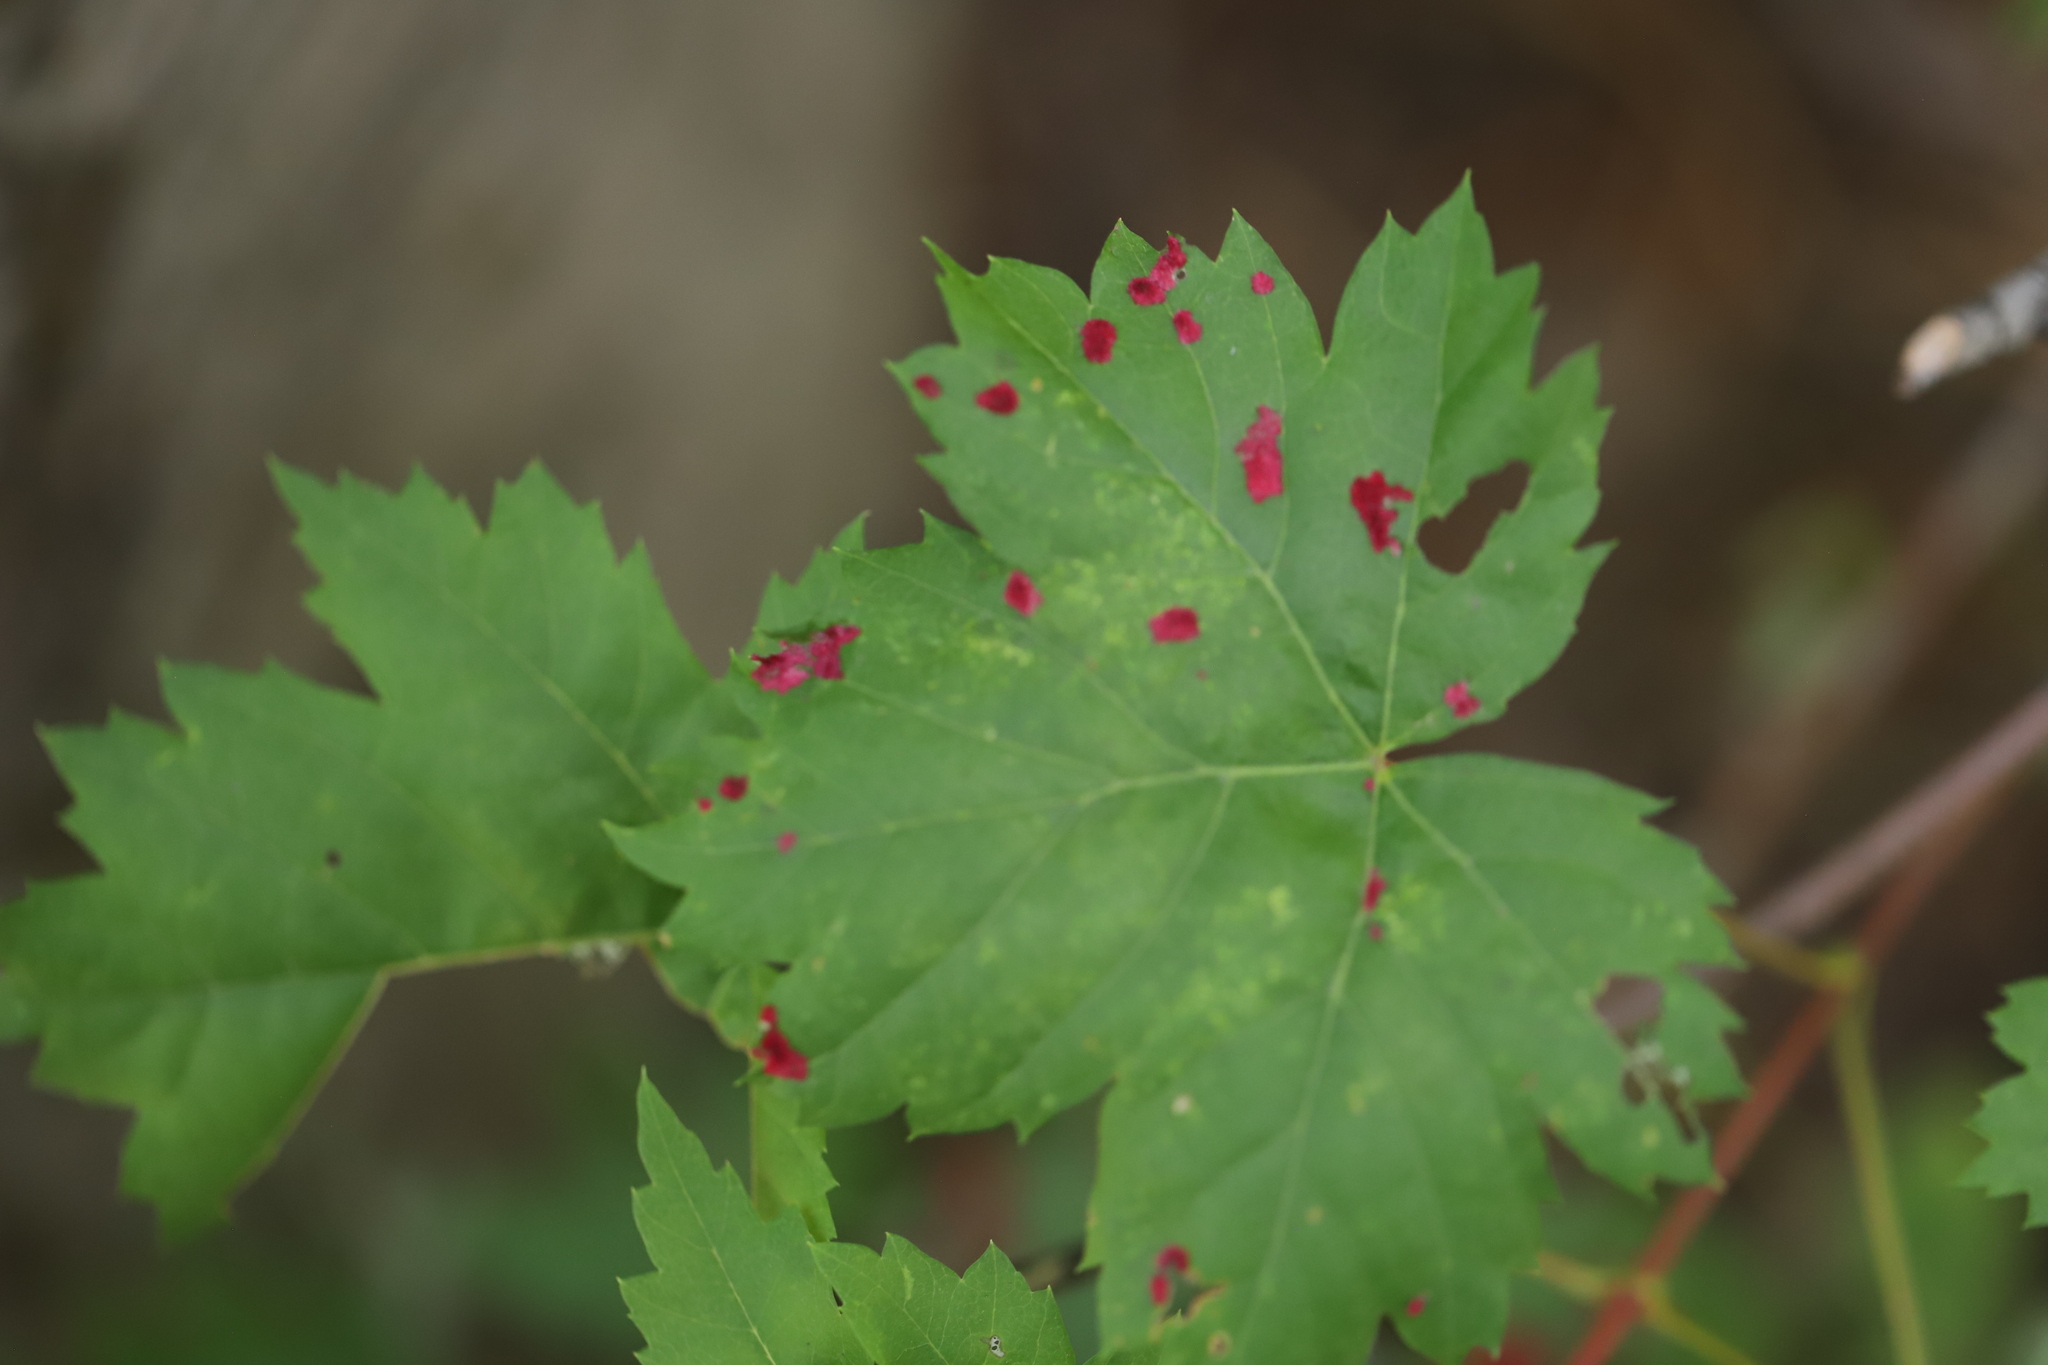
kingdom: Animalia
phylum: Arthropoda
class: Arachnida
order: Trombidiformes
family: Eriophyidae
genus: Aceria
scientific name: Aceria
